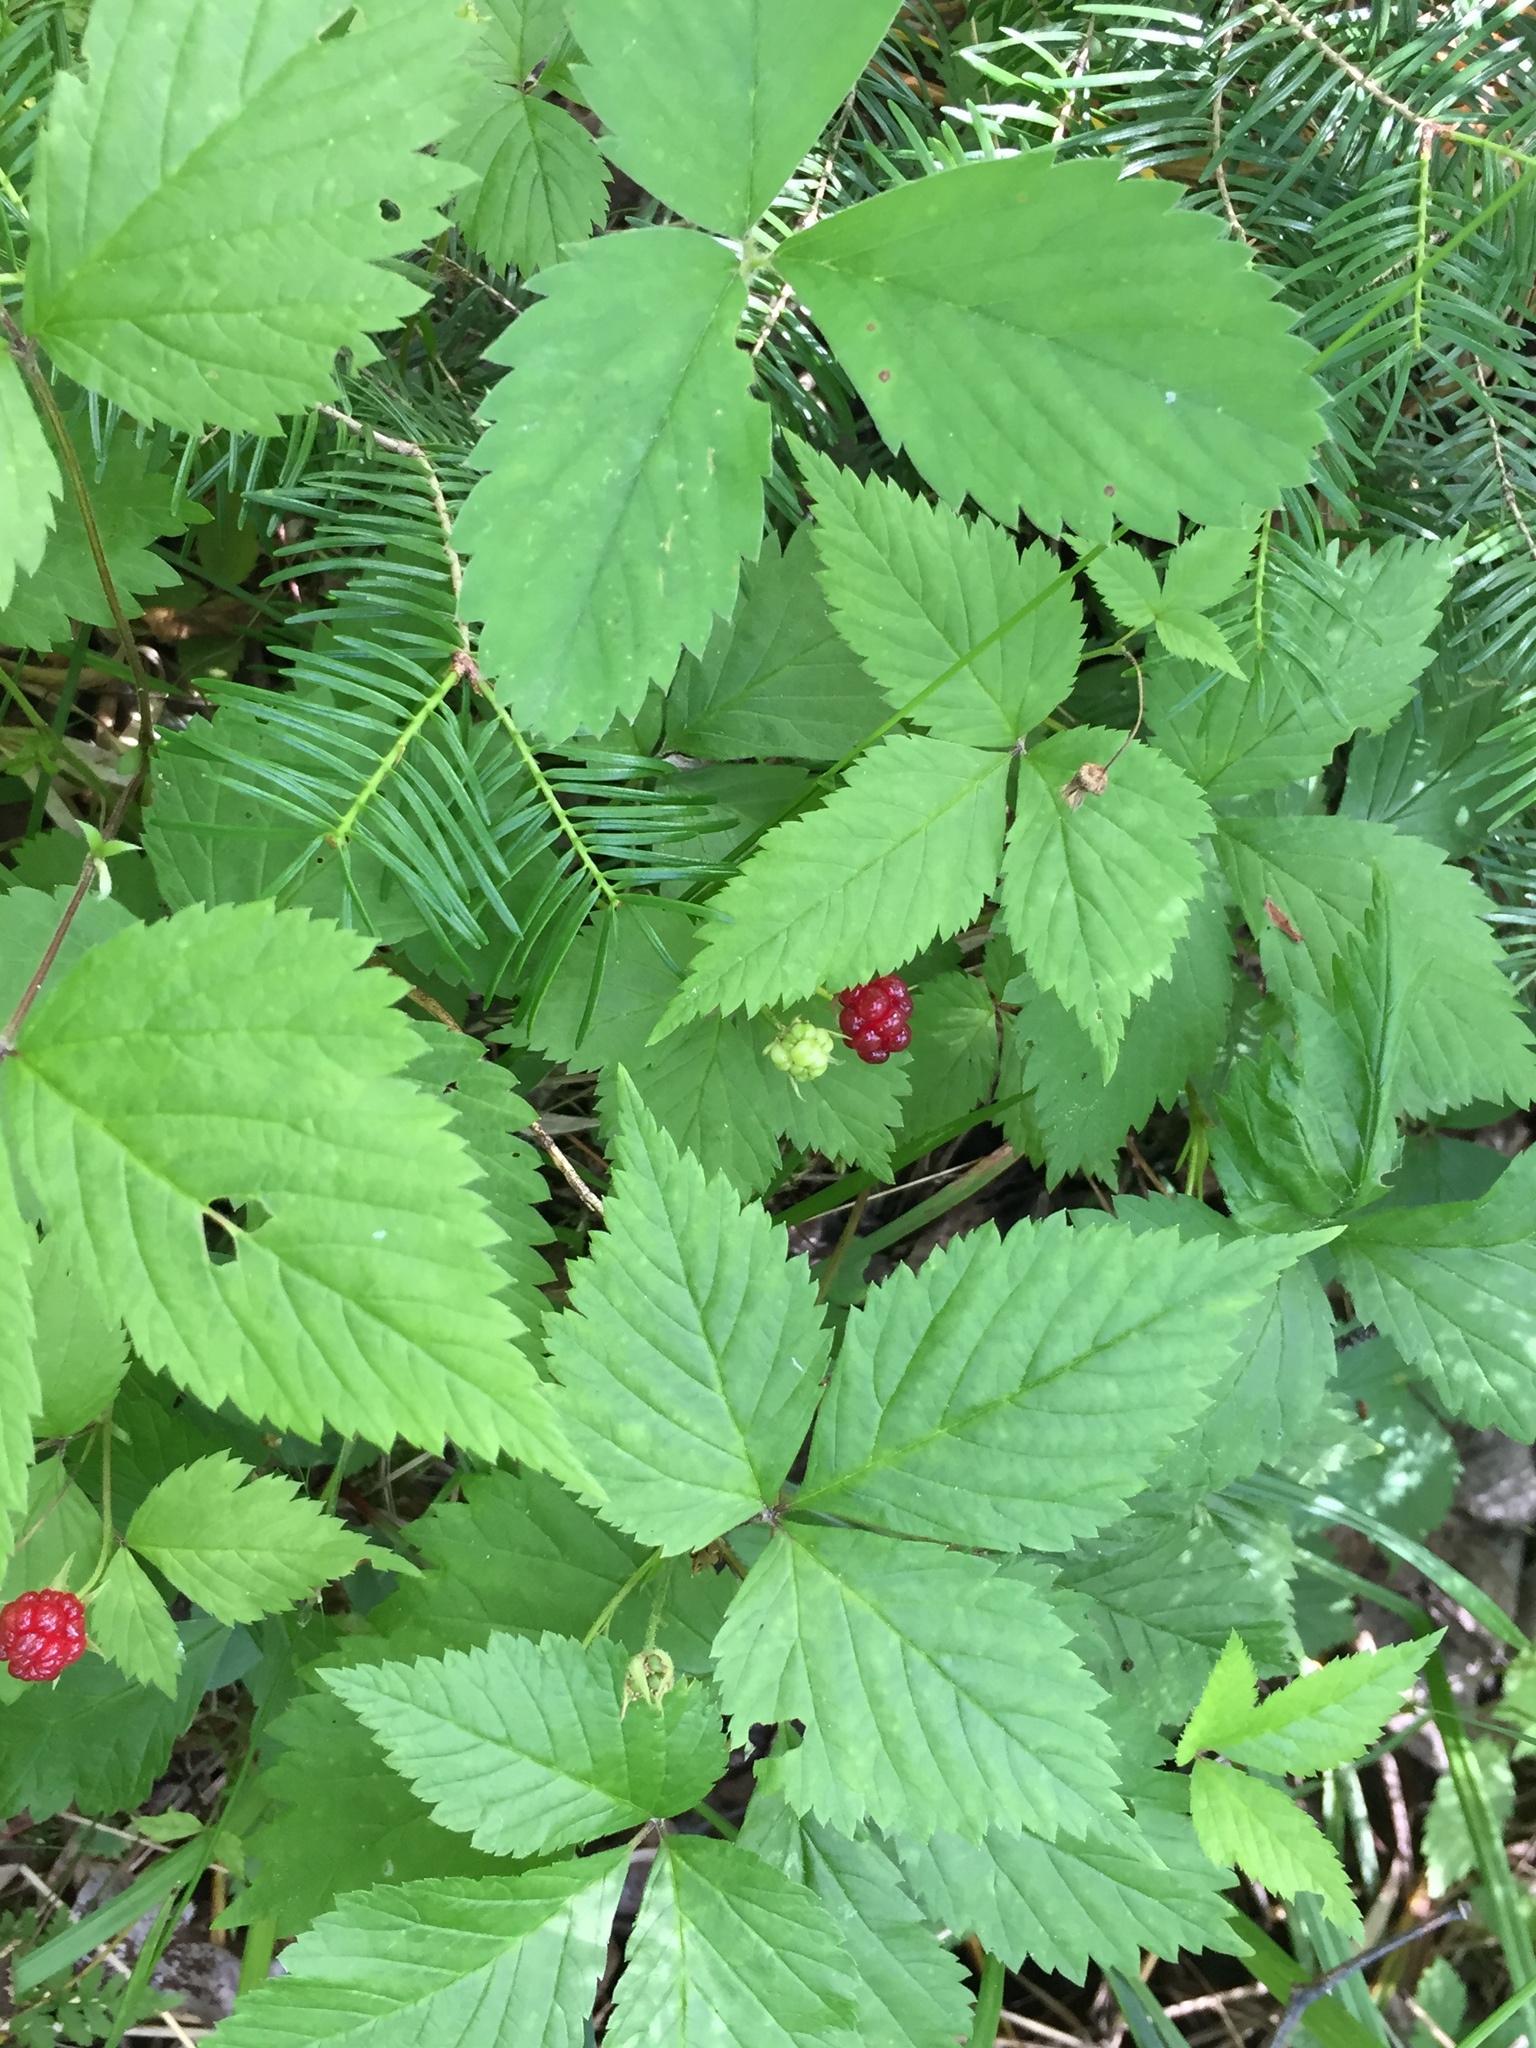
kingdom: Plantae
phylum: Tracheophyta
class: Magnoliopsida
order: Rosales
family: Rosaceae
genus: Rubus
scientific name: Rubus pubescens
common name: Dwarf raspberry
